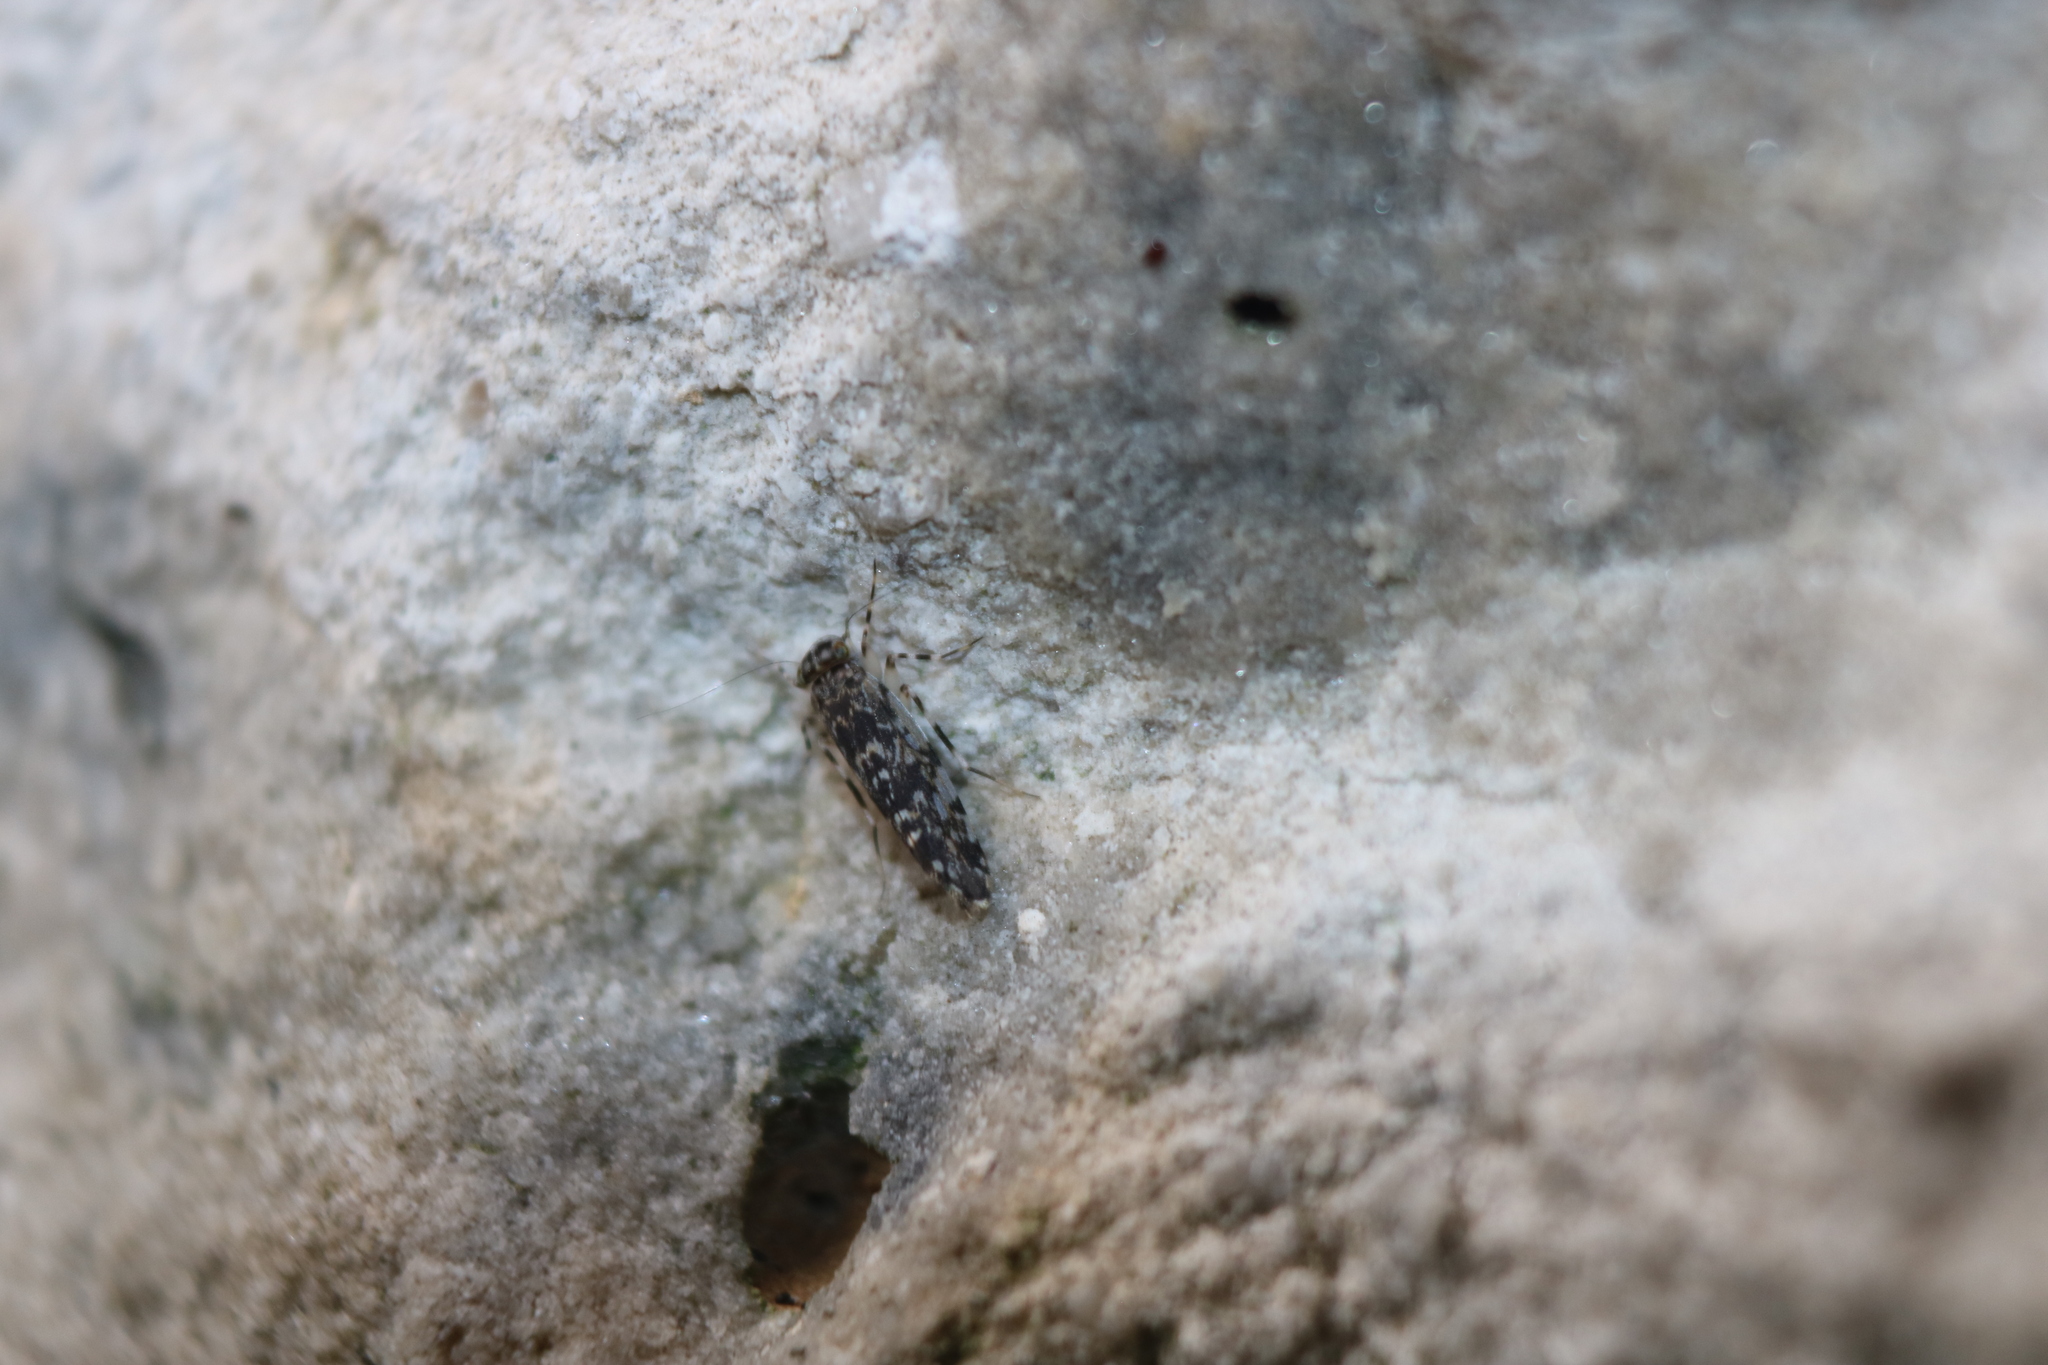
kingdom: Animalia
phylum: Arthropoda
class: Insecta
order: Psocodea
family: Amphientomidae
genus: Stimulopalpus
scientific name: Stimulopalpus japonicus
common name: Tropical bark louse
